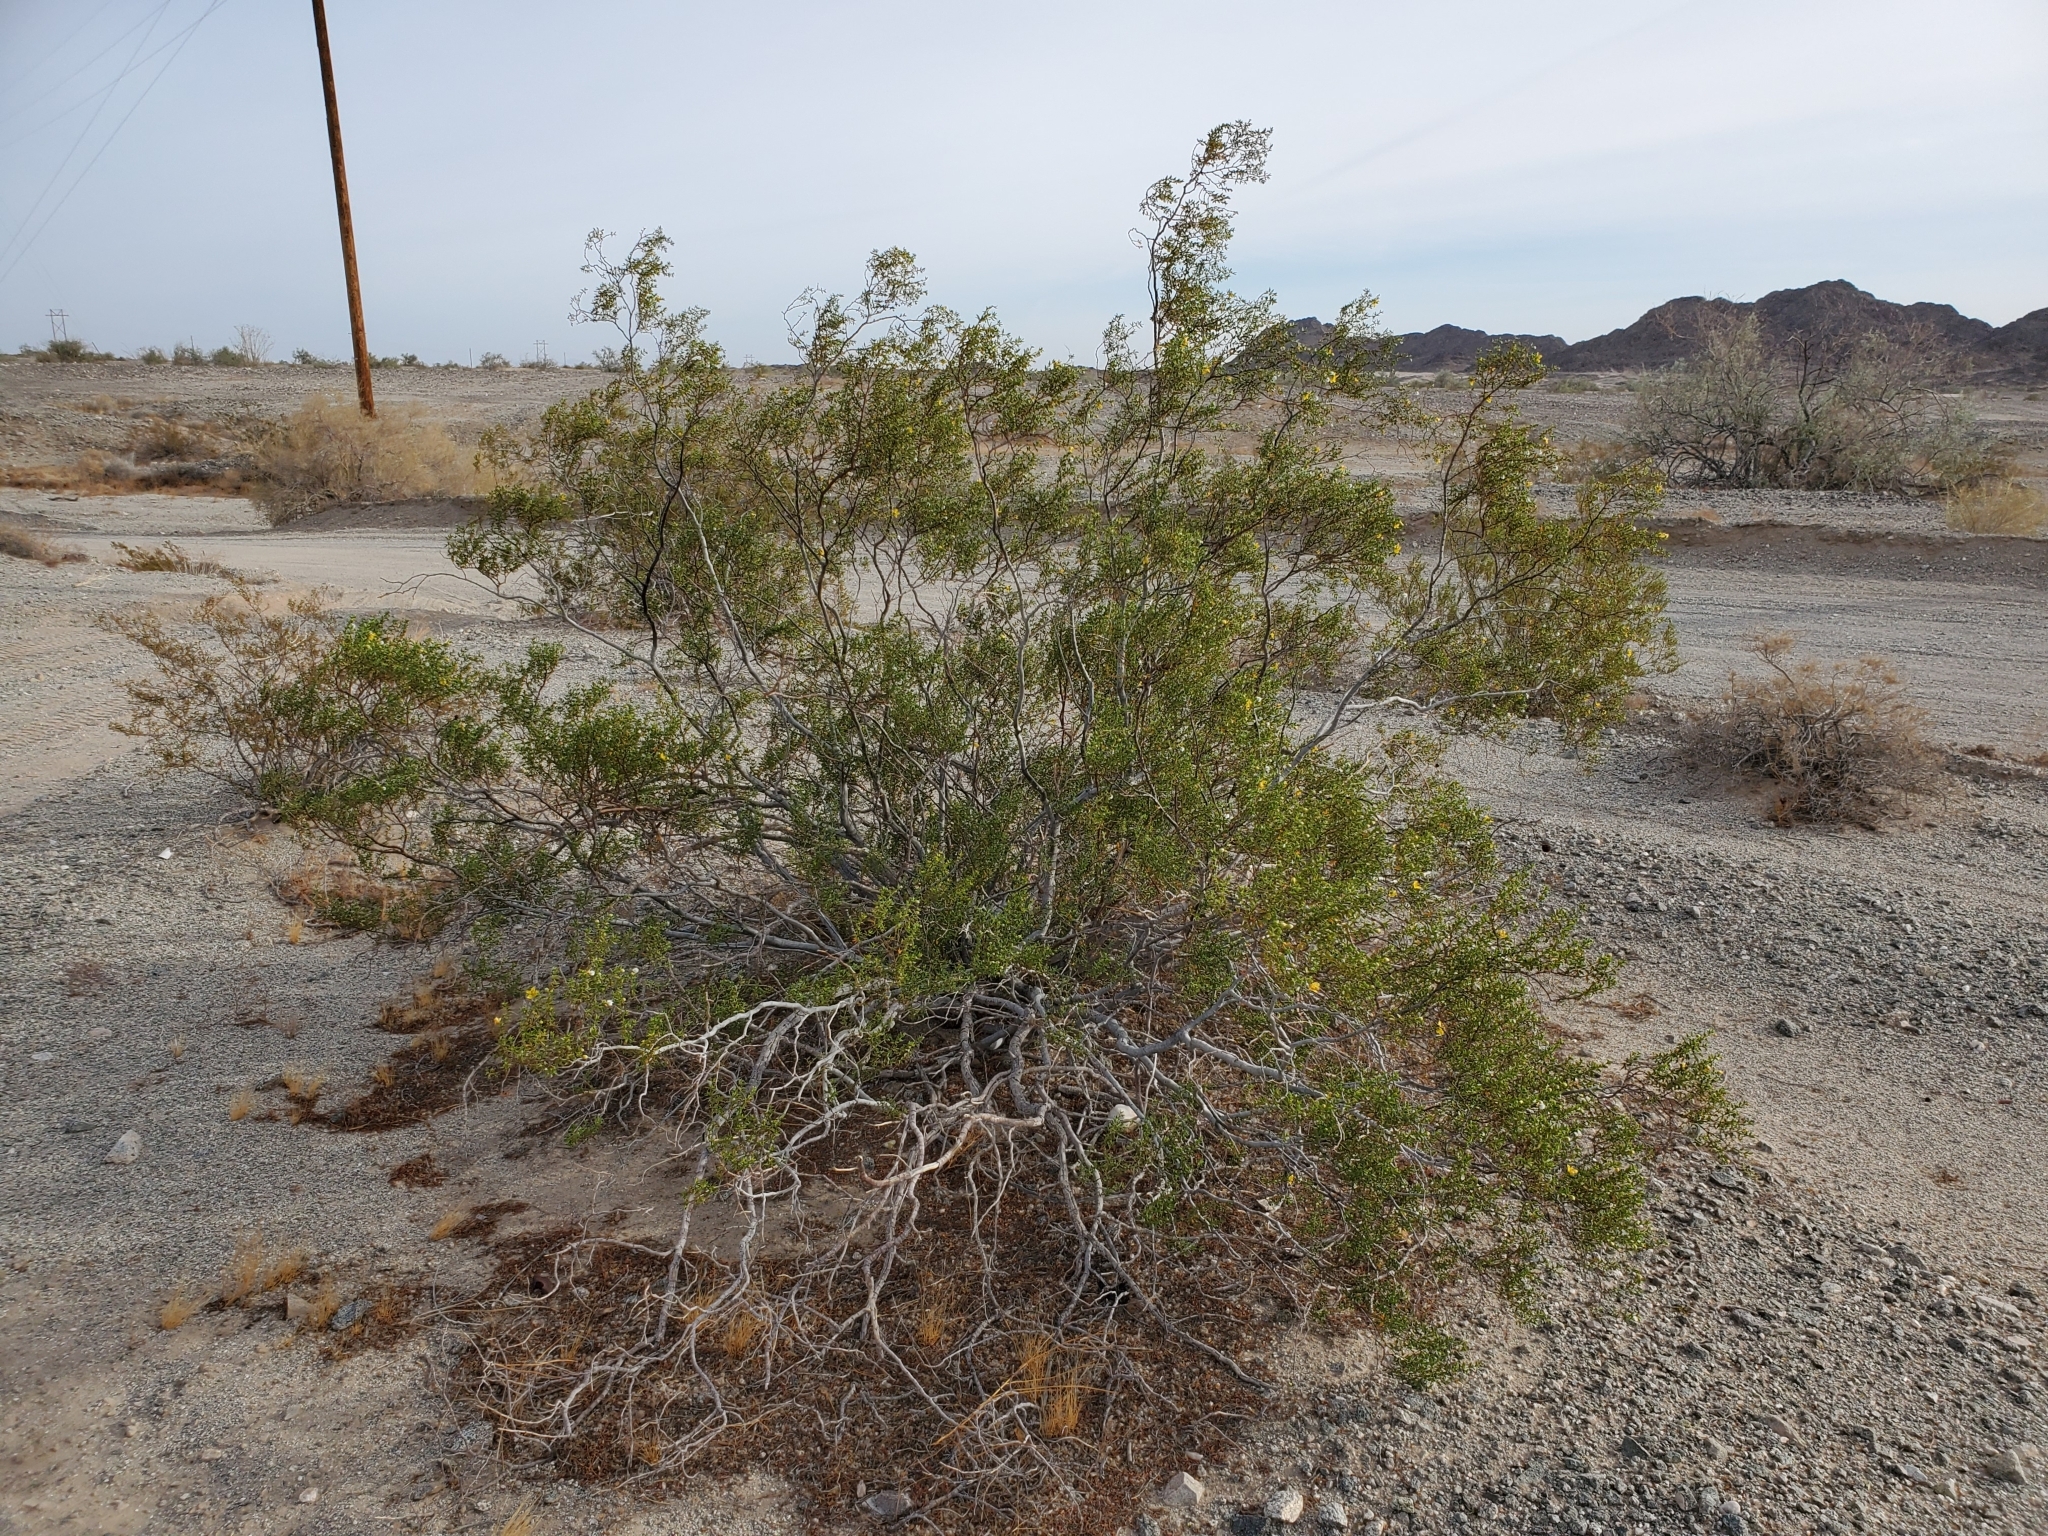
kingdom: Plantae
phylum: Tracheophyta
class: Magnoliopsida
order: Zygophyllales
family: Zygophyllaceae
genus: Larrea
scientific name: Larrea tridentata
